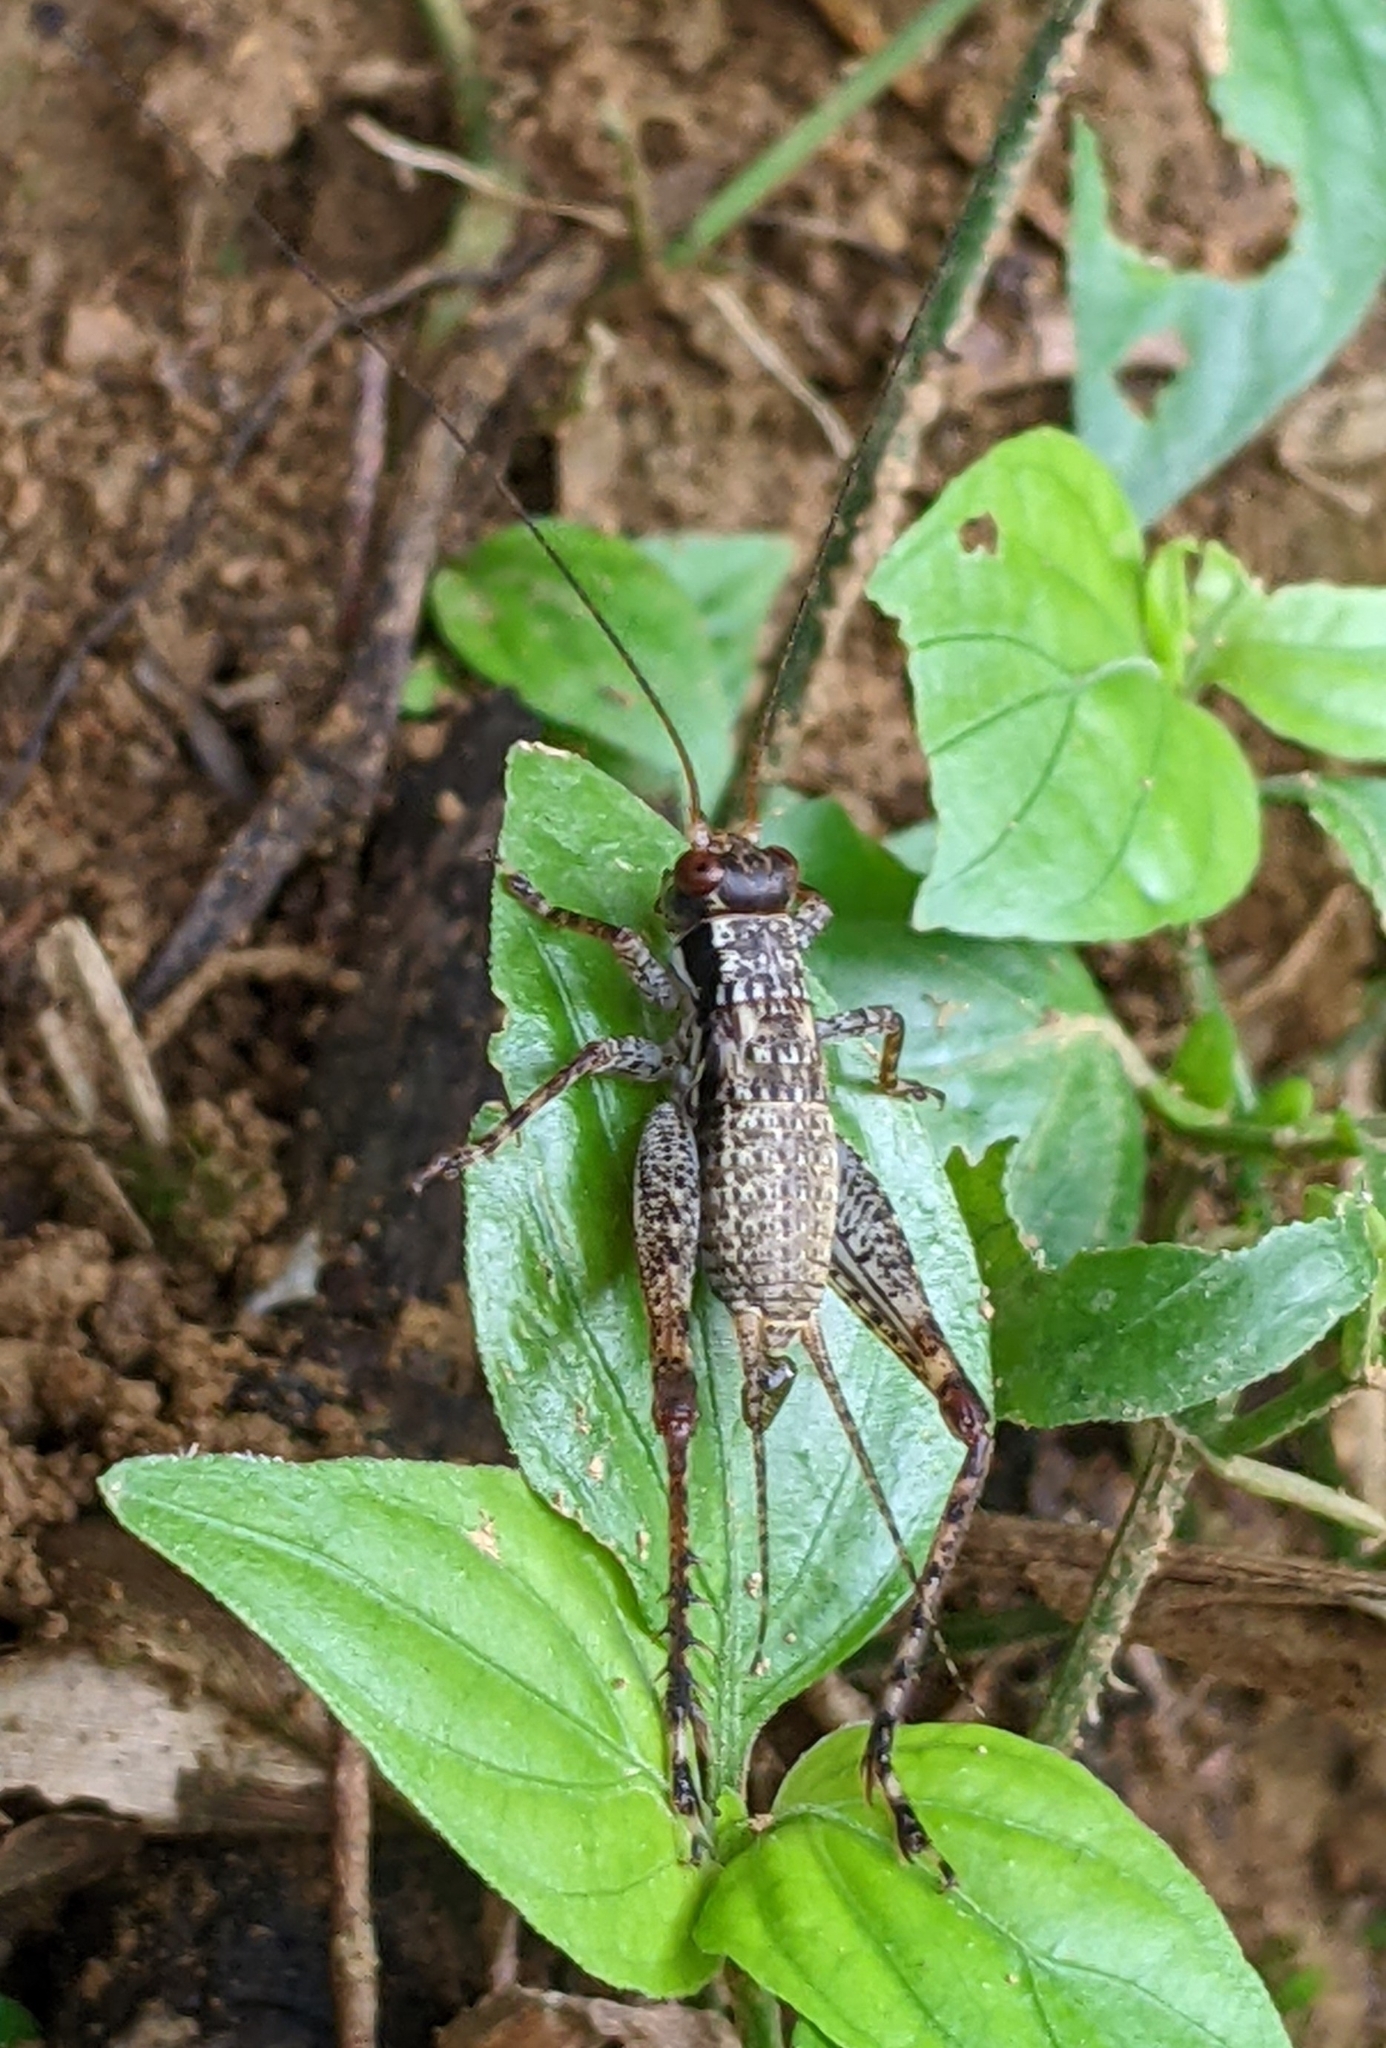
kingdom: Animalia
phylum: Arthropoda
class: Insecta
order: Orthoptera
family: Gryllidae
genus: Cardiodactylus
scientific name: Cardiodactylus guttulus
